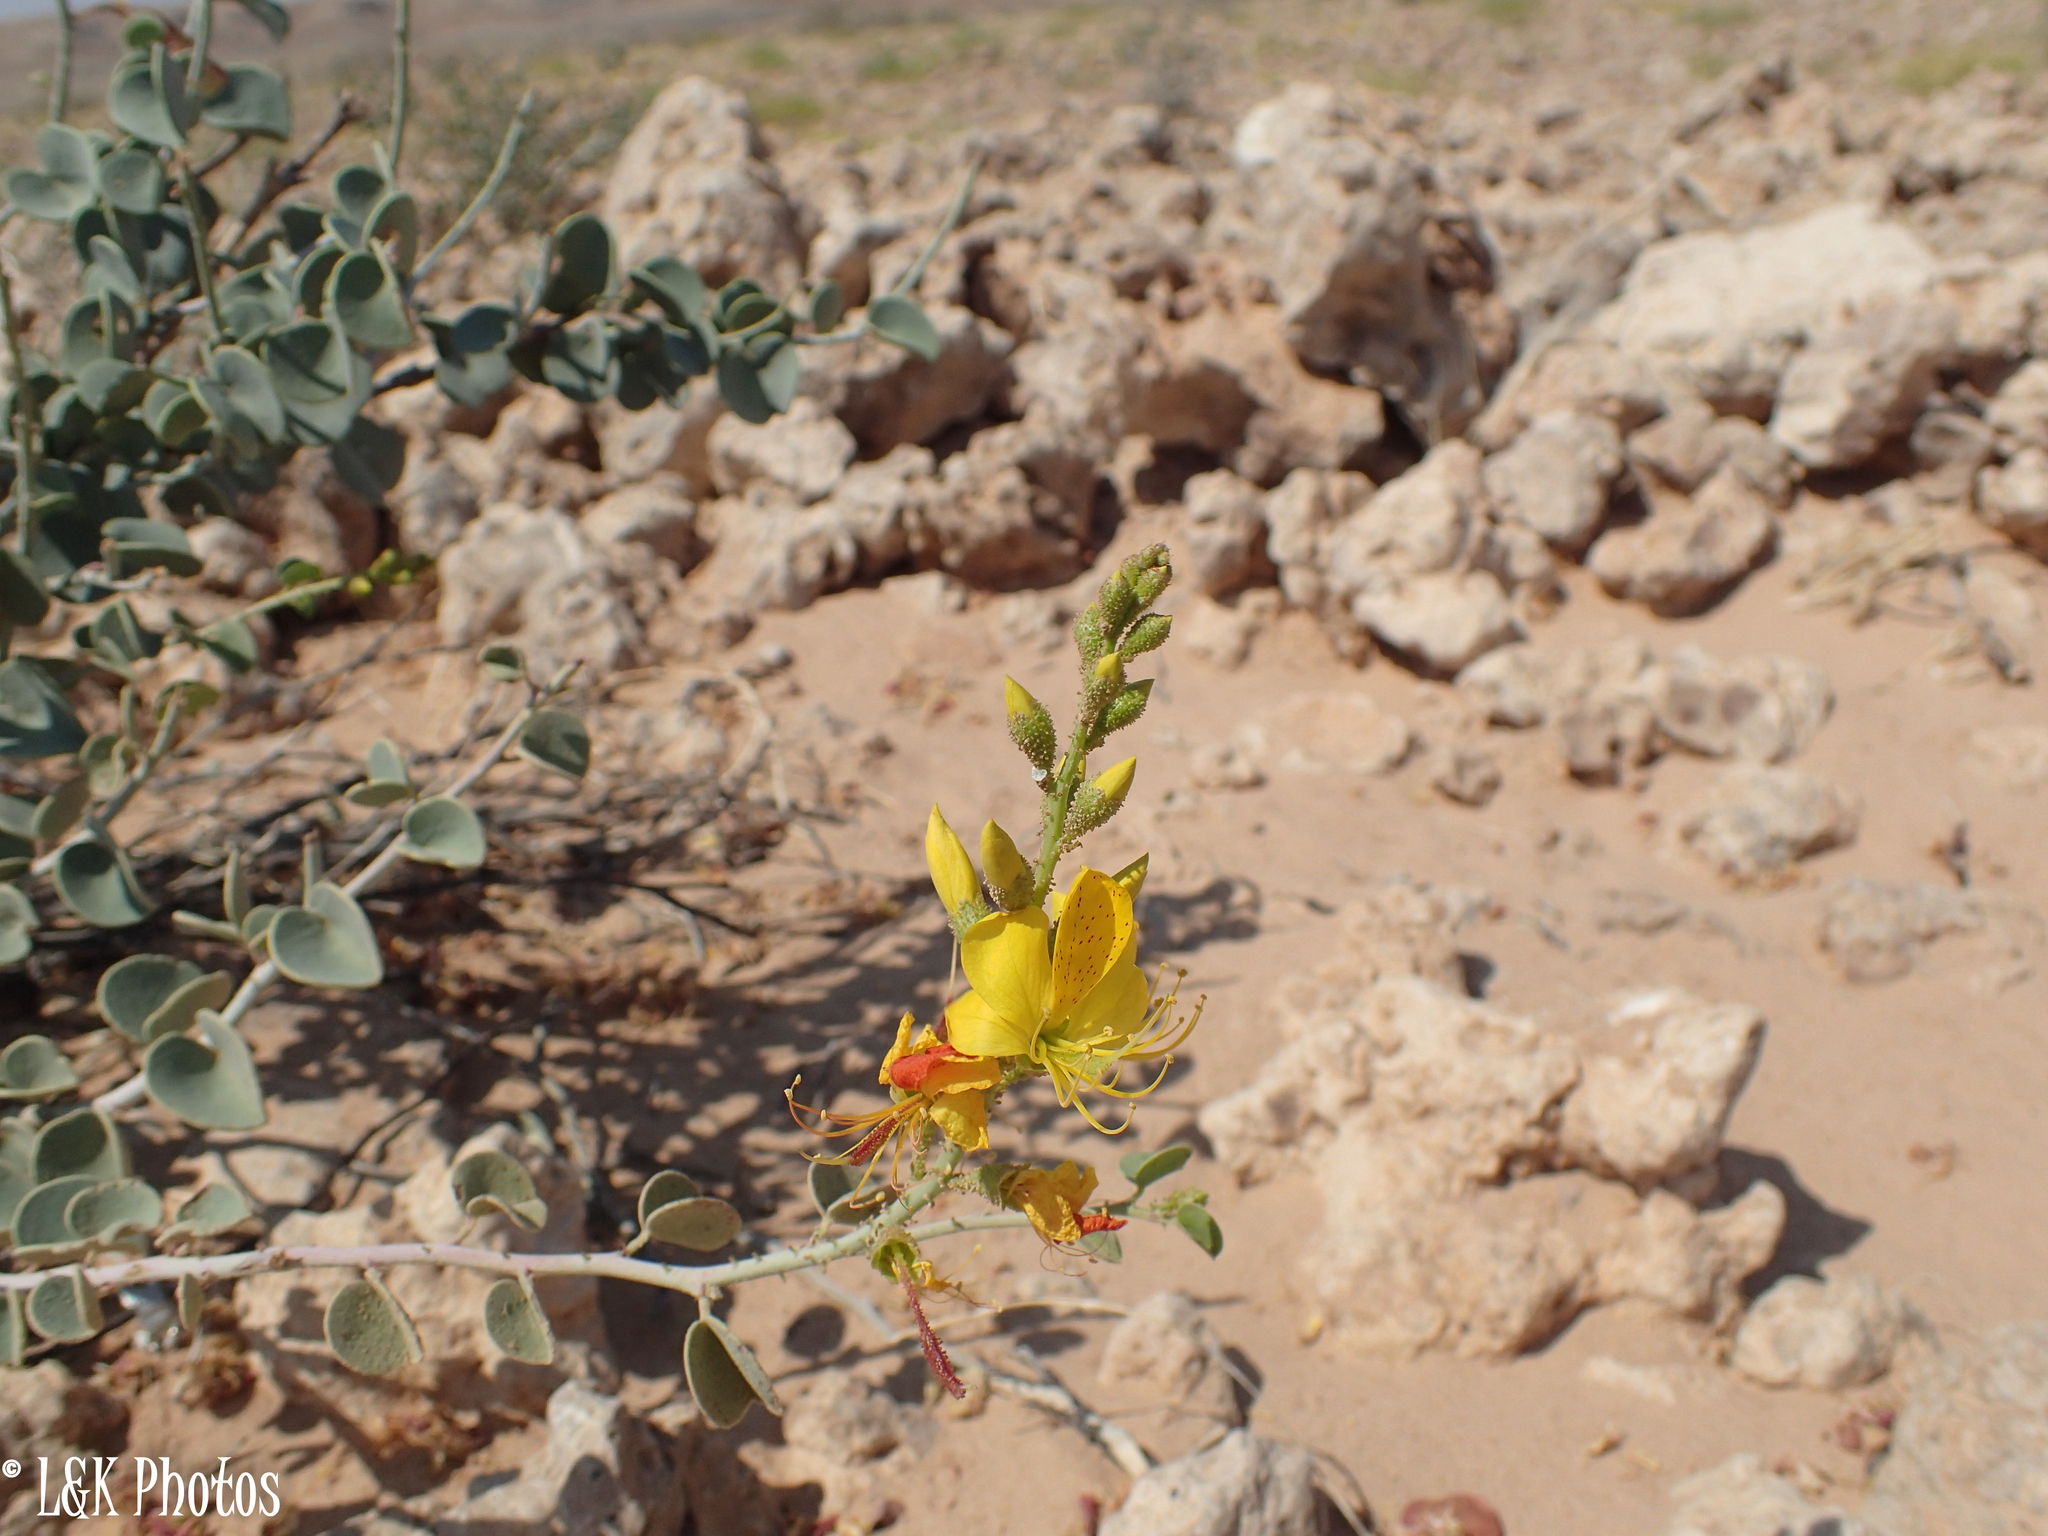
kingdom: Plantae
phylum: Tracheophyta
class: Magnoliopsida
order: Fabales
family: Fabaceae
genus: Adenolobus
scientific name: Adenolobus pechuelii
